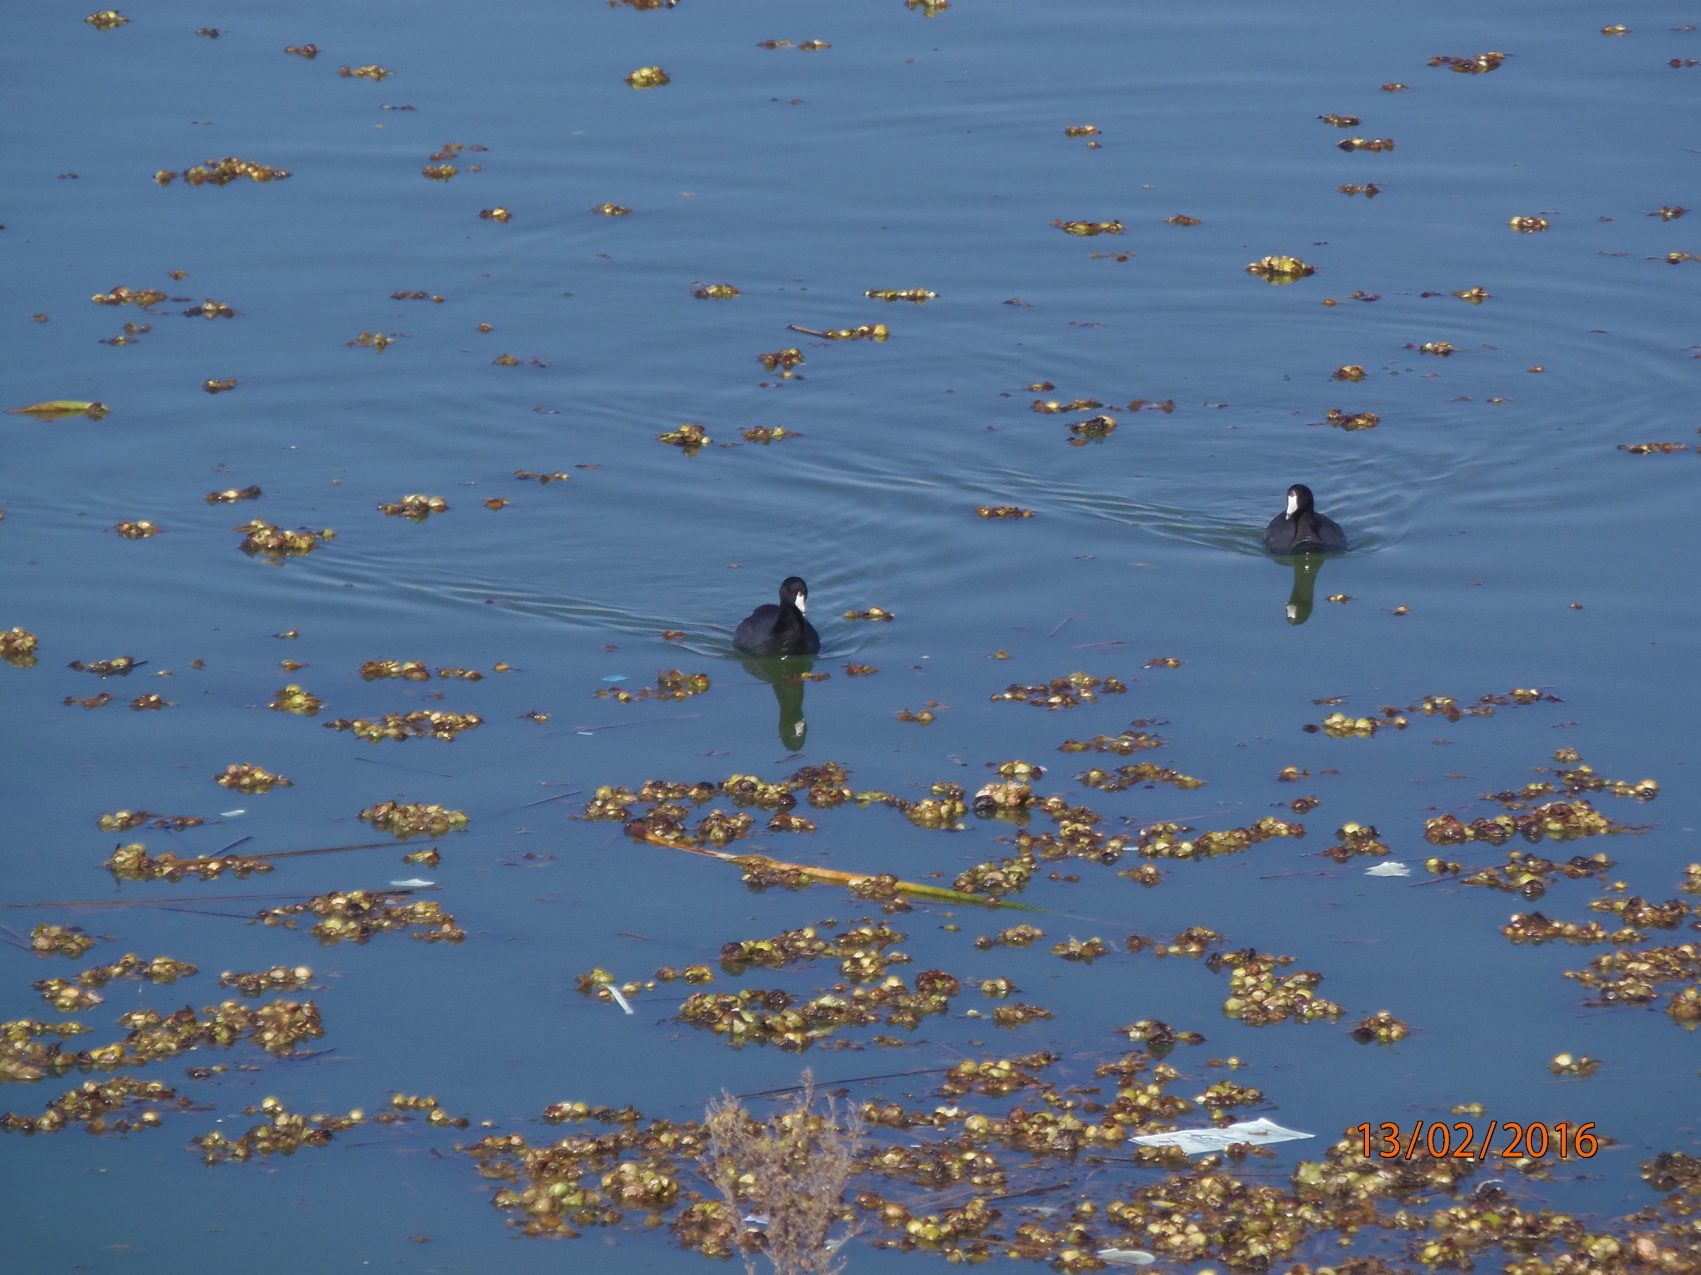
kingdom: Animalia
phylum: Chordata
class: Aves
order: Gruiformes
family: Rallidae
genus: Fulica
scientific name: Fulica americana
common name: American coot
